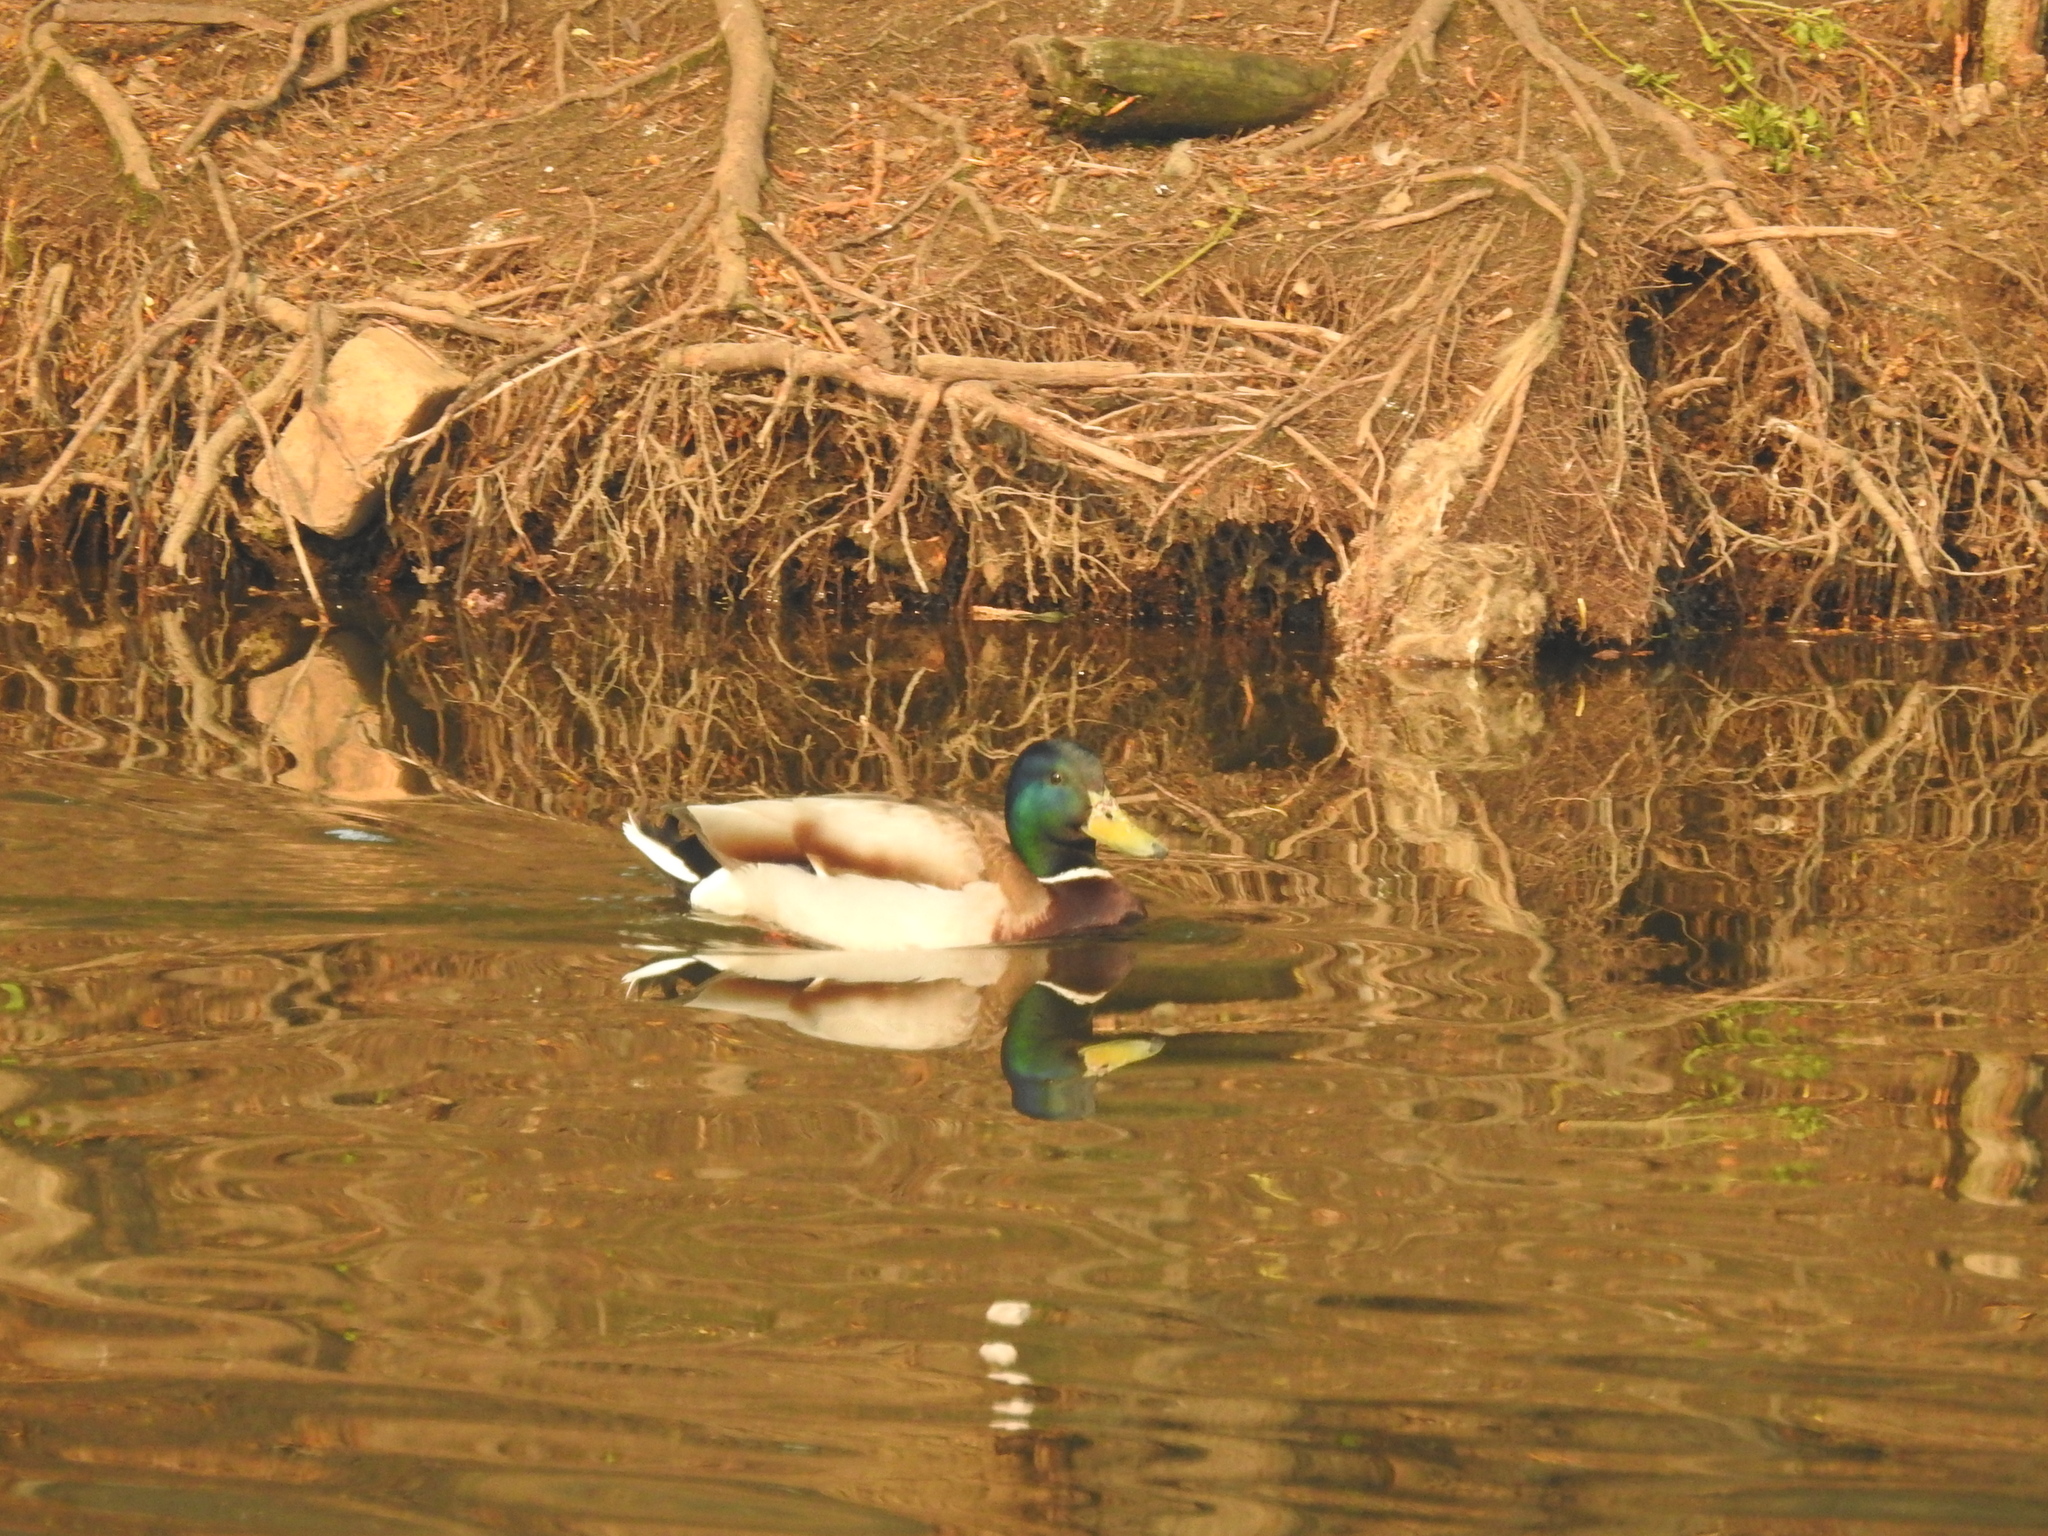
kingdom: Animalia
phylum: Chordata
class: Aves
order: Anseriformes
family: Anatidae
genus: Anas
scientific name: Anas platyrhynchos
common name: Mallard
